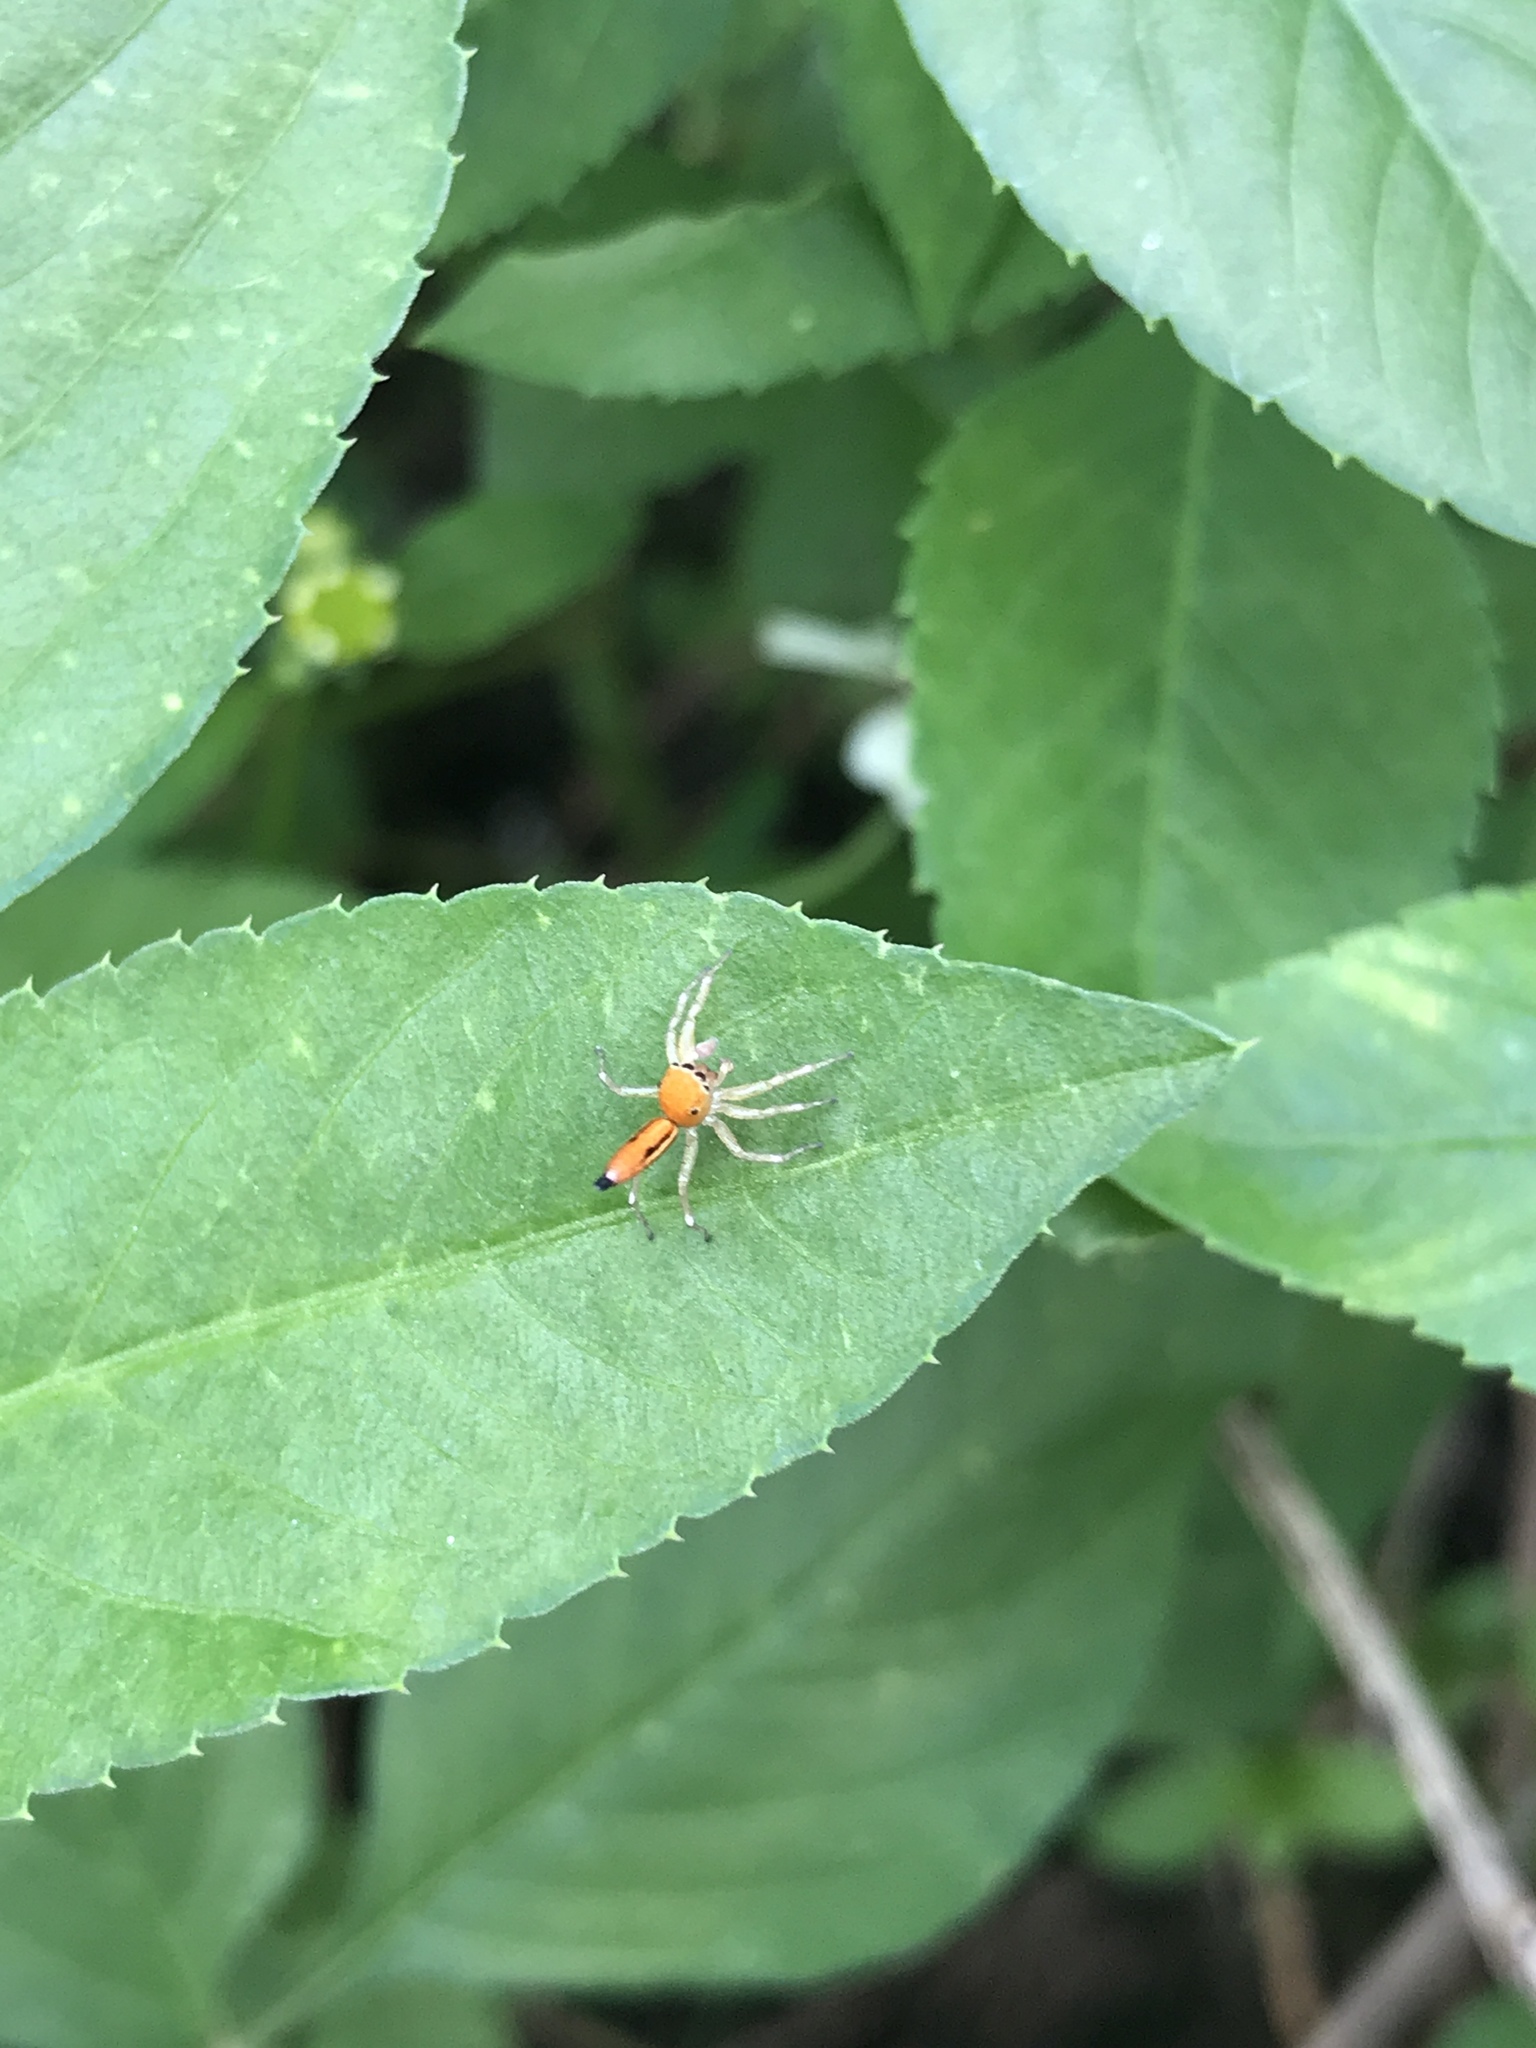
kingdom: Animalia
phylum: Arthropoda
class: Arachnida
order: Araneae
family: Salticidae
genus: Cosmophasis
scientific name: Cosmophasis lami
